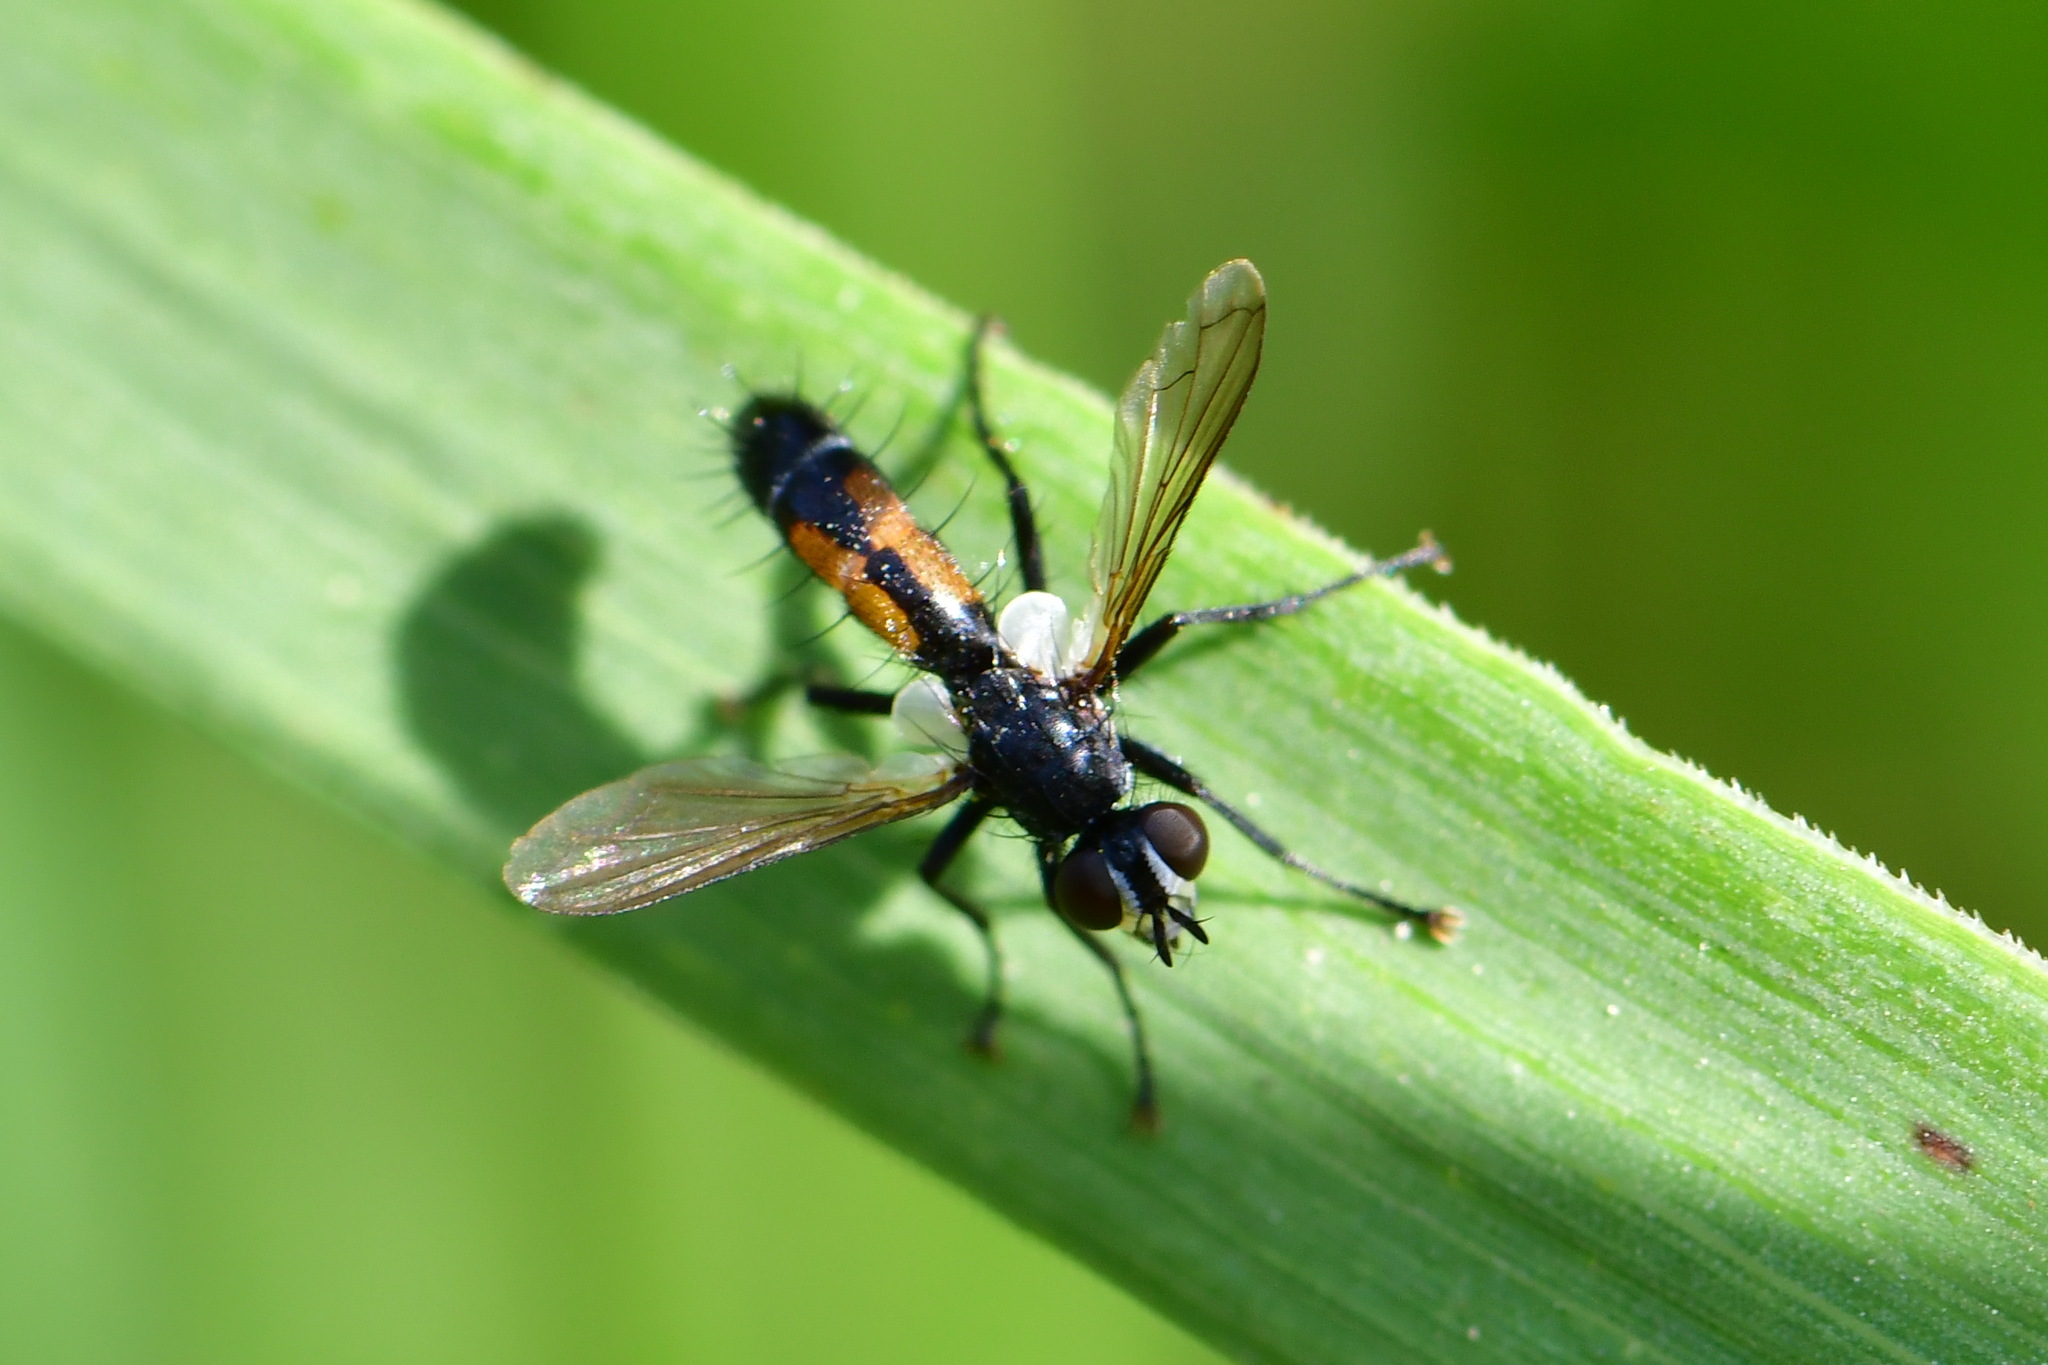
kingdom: Animalia
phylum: Arthropoda
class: Insecta
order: Diptera
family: Tachinidae
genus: Cylindromyia
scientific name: Cylindromyia intermedia
